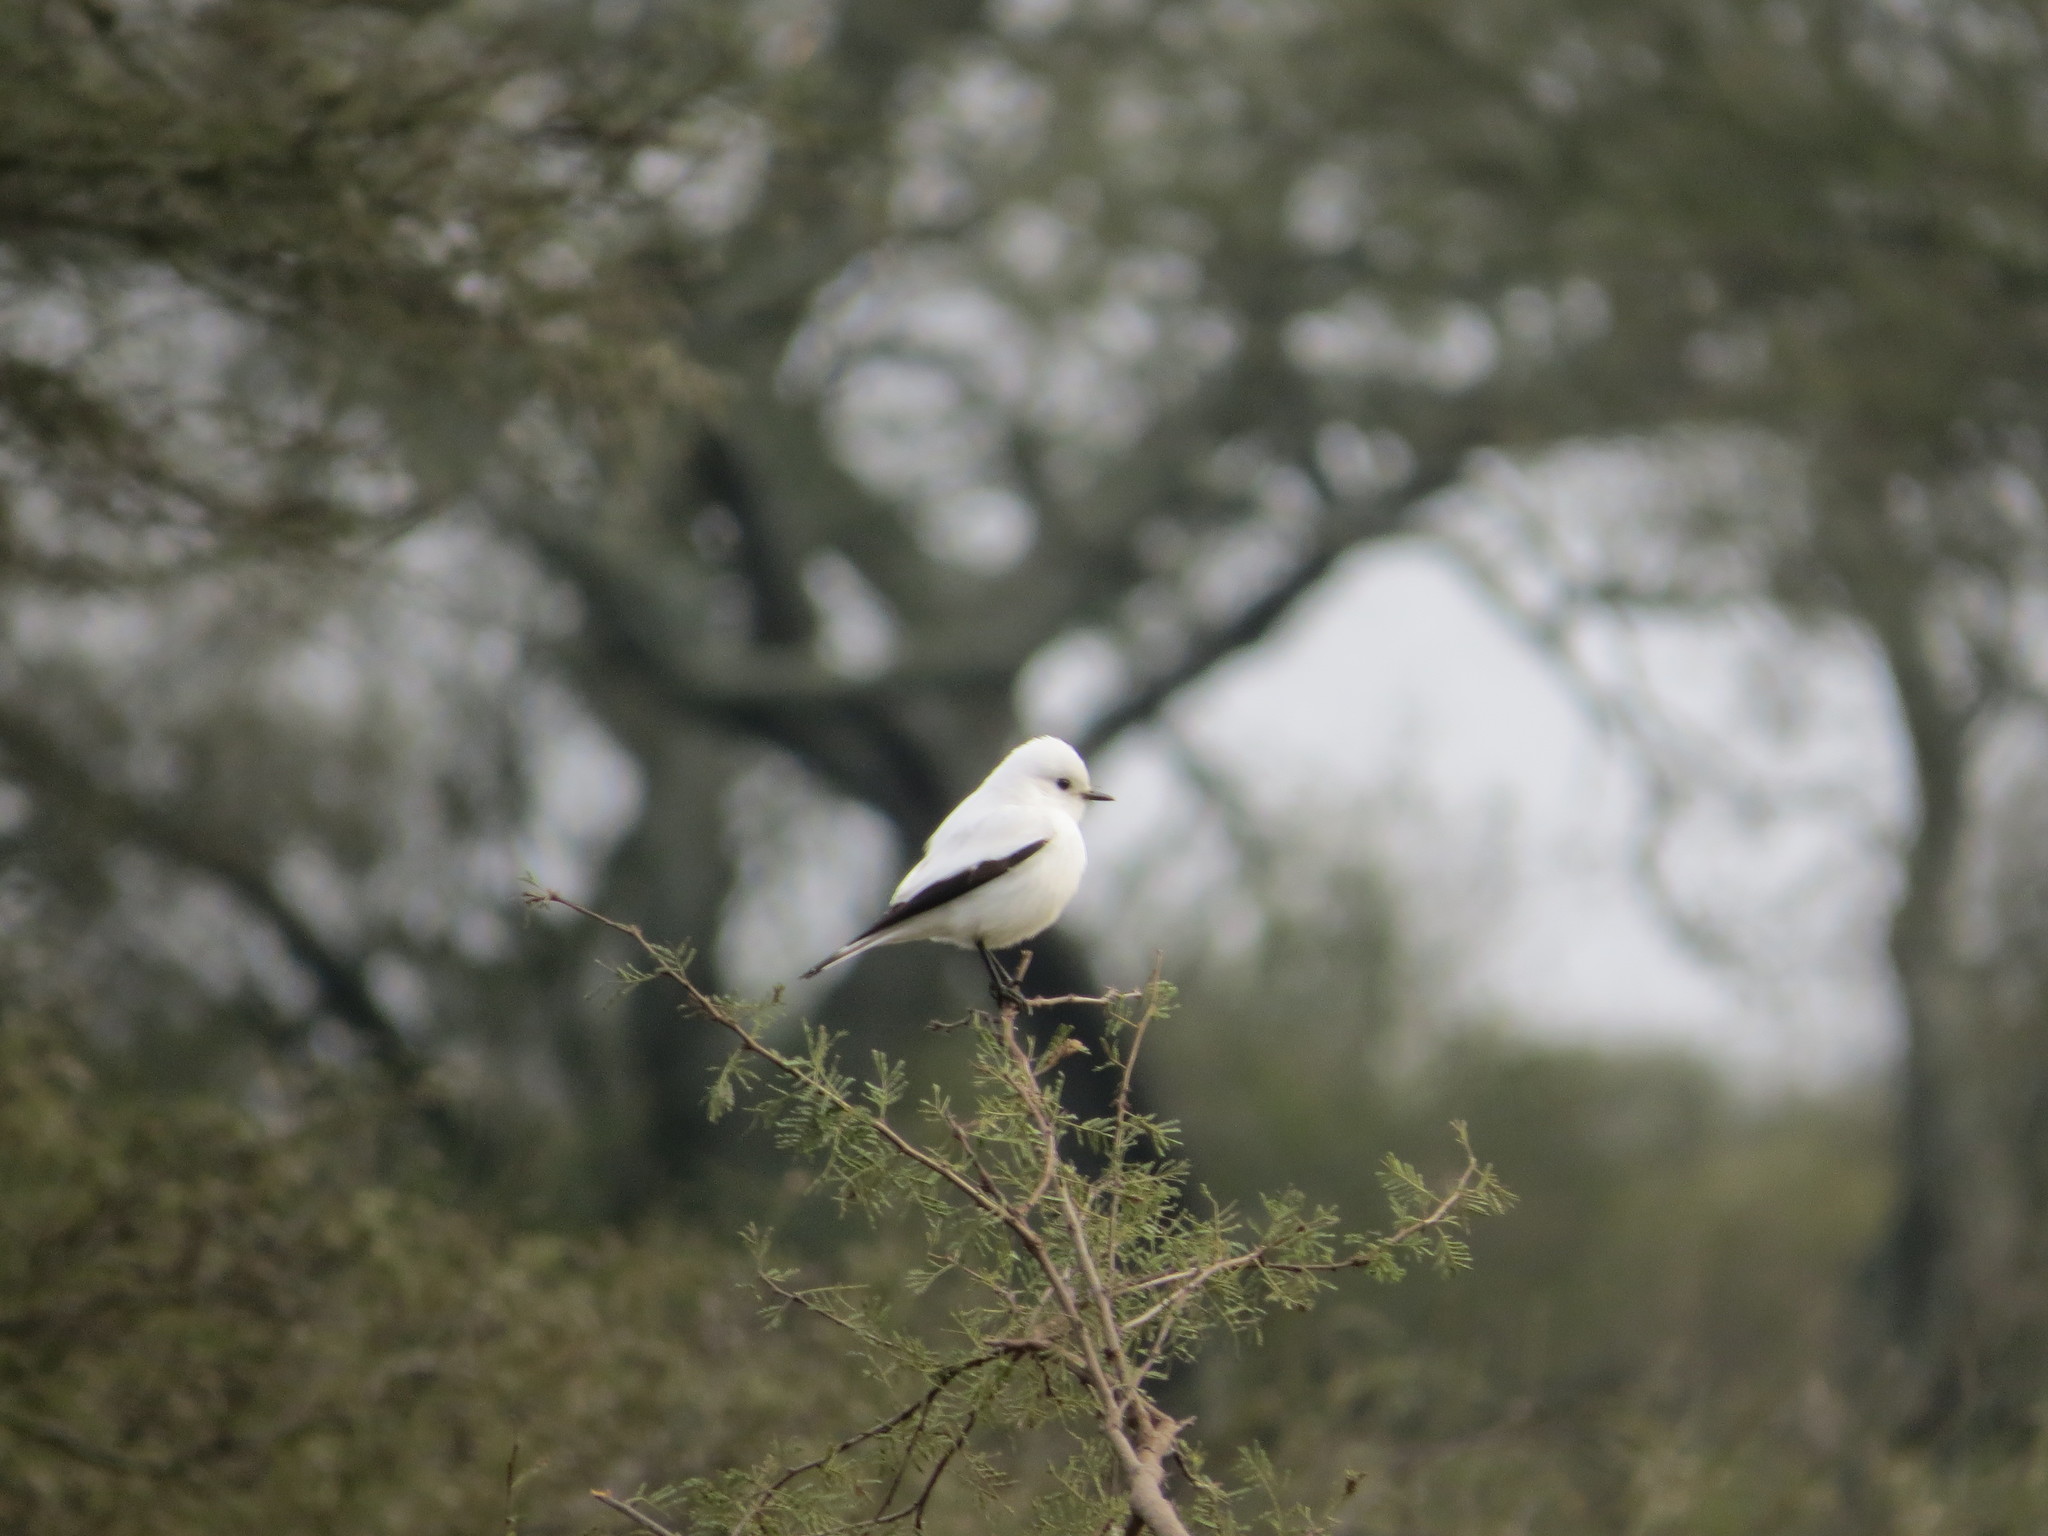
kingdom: Animalia
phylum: Chordata
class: Aves
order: Passeriformes
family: Tyrannidae
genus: Xolmis
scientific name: Xolmis irupero
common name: White monjita
